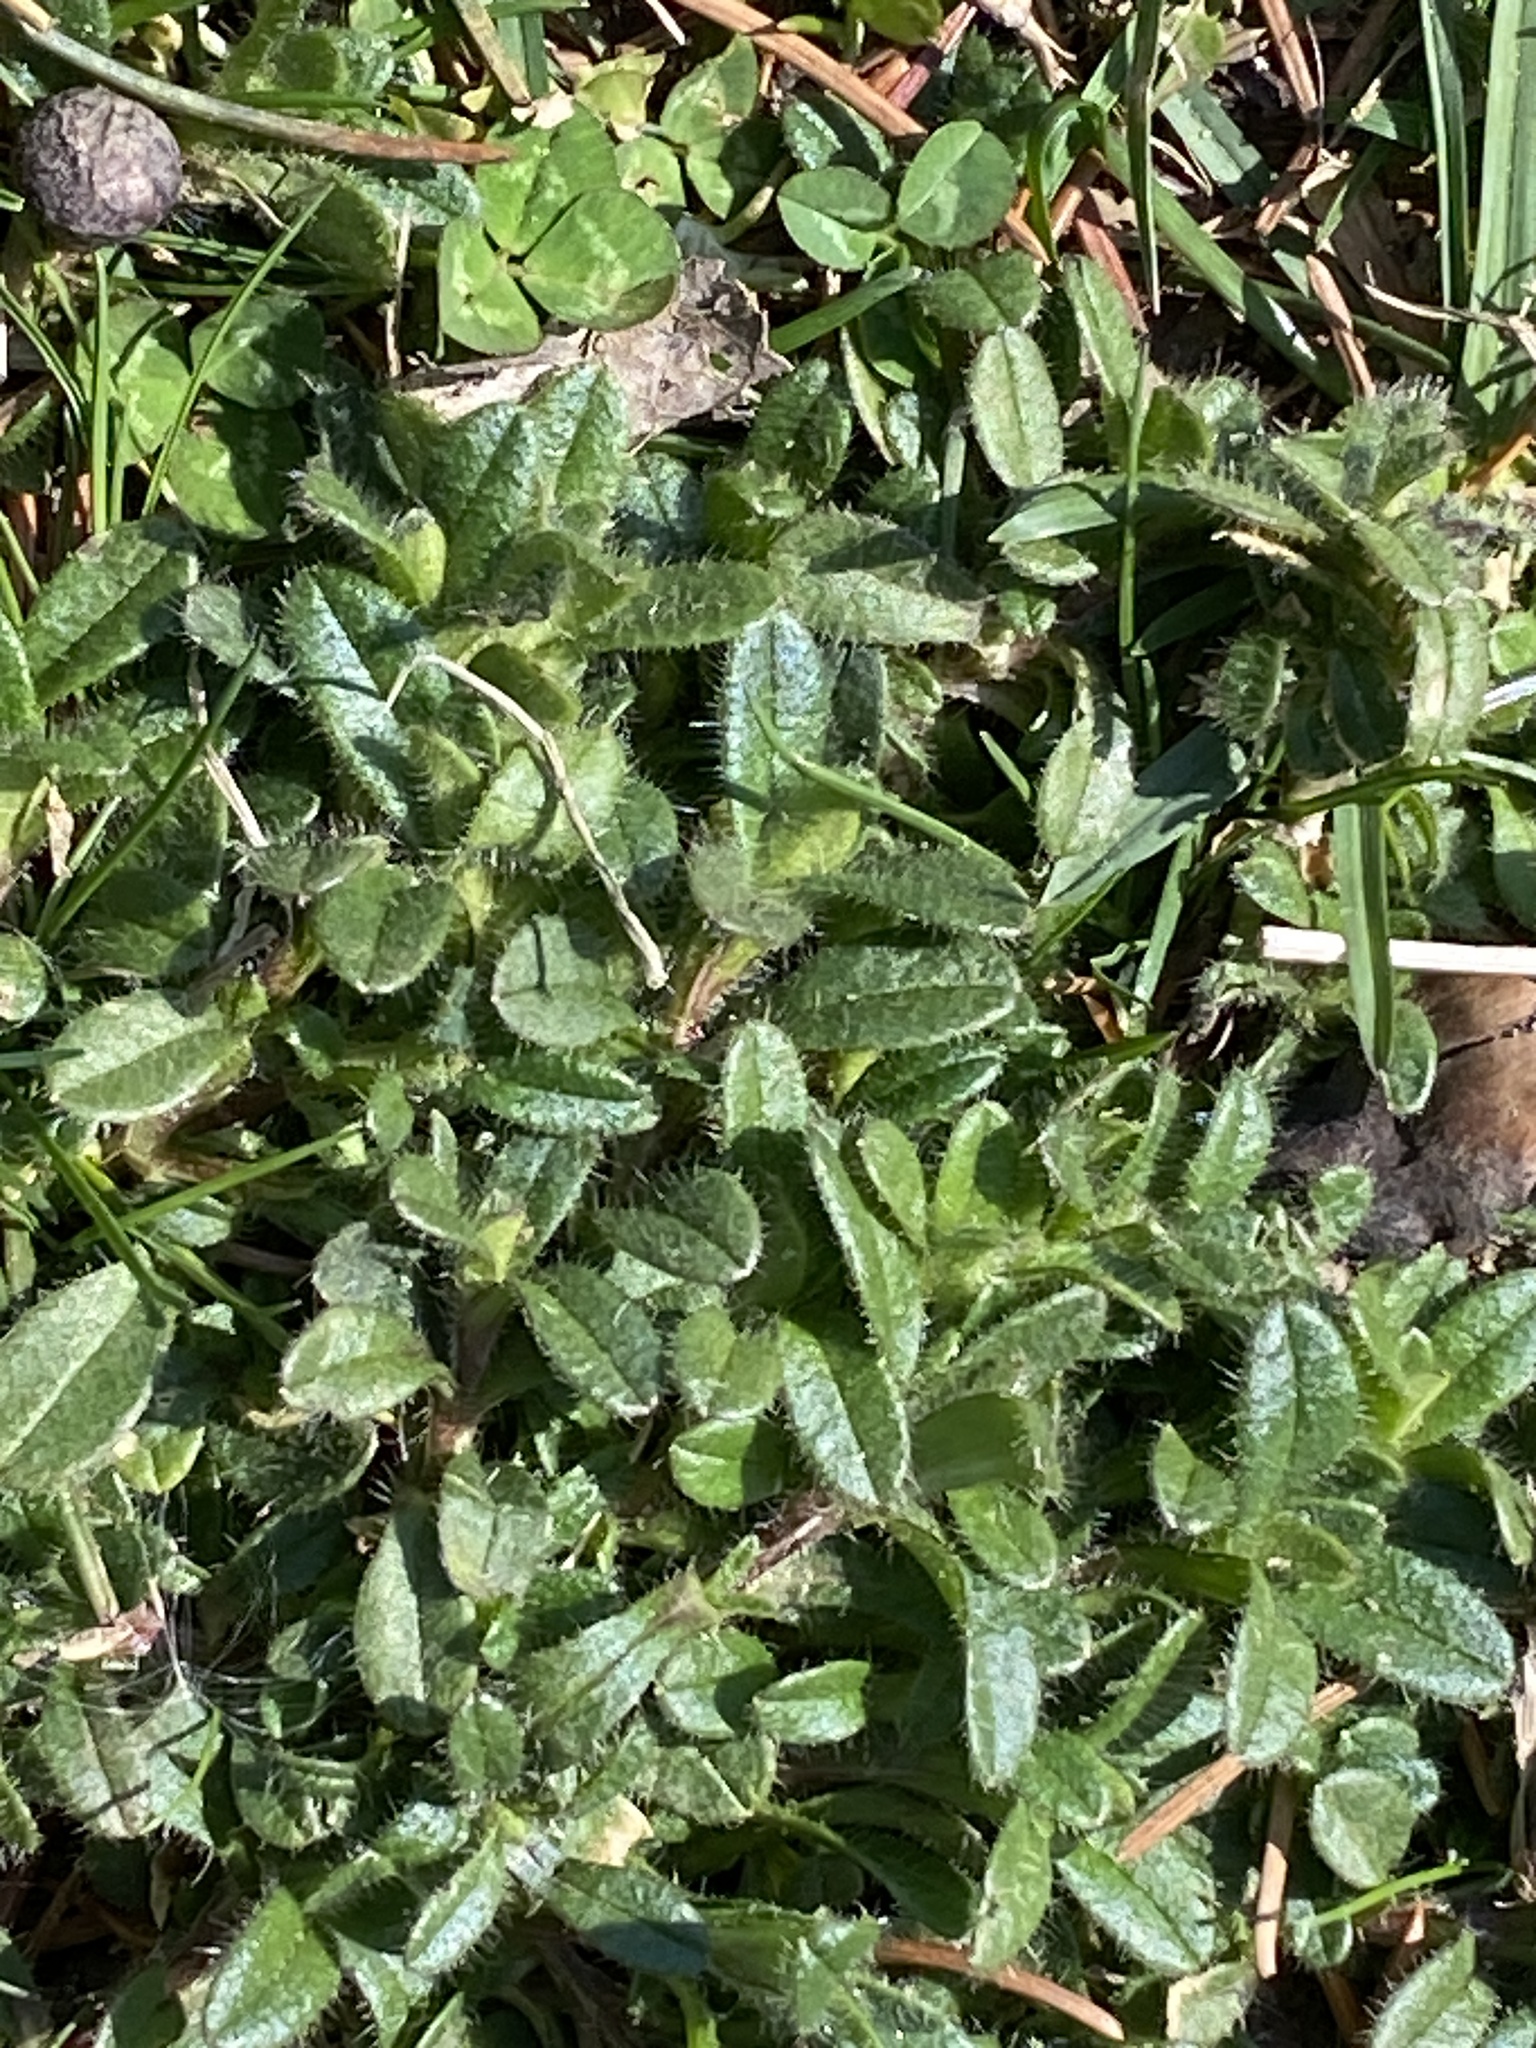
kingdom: Plantae
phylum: Tracheophyta
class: Magnoliopsida
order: Caryophyllales
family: Caryophyllaceae
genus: Cerastium
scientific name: Cerastium fontanum
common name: Common mouse-ear
